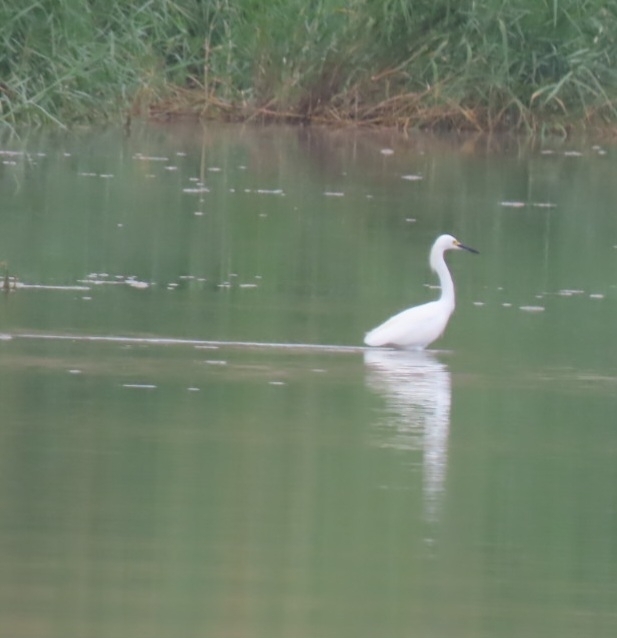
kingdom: Animalia
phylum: Chordata
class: Aves
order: Pelecaniformes
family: Ardeidae
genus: Egretta
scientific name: Egretta thula
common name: Snowy egret
